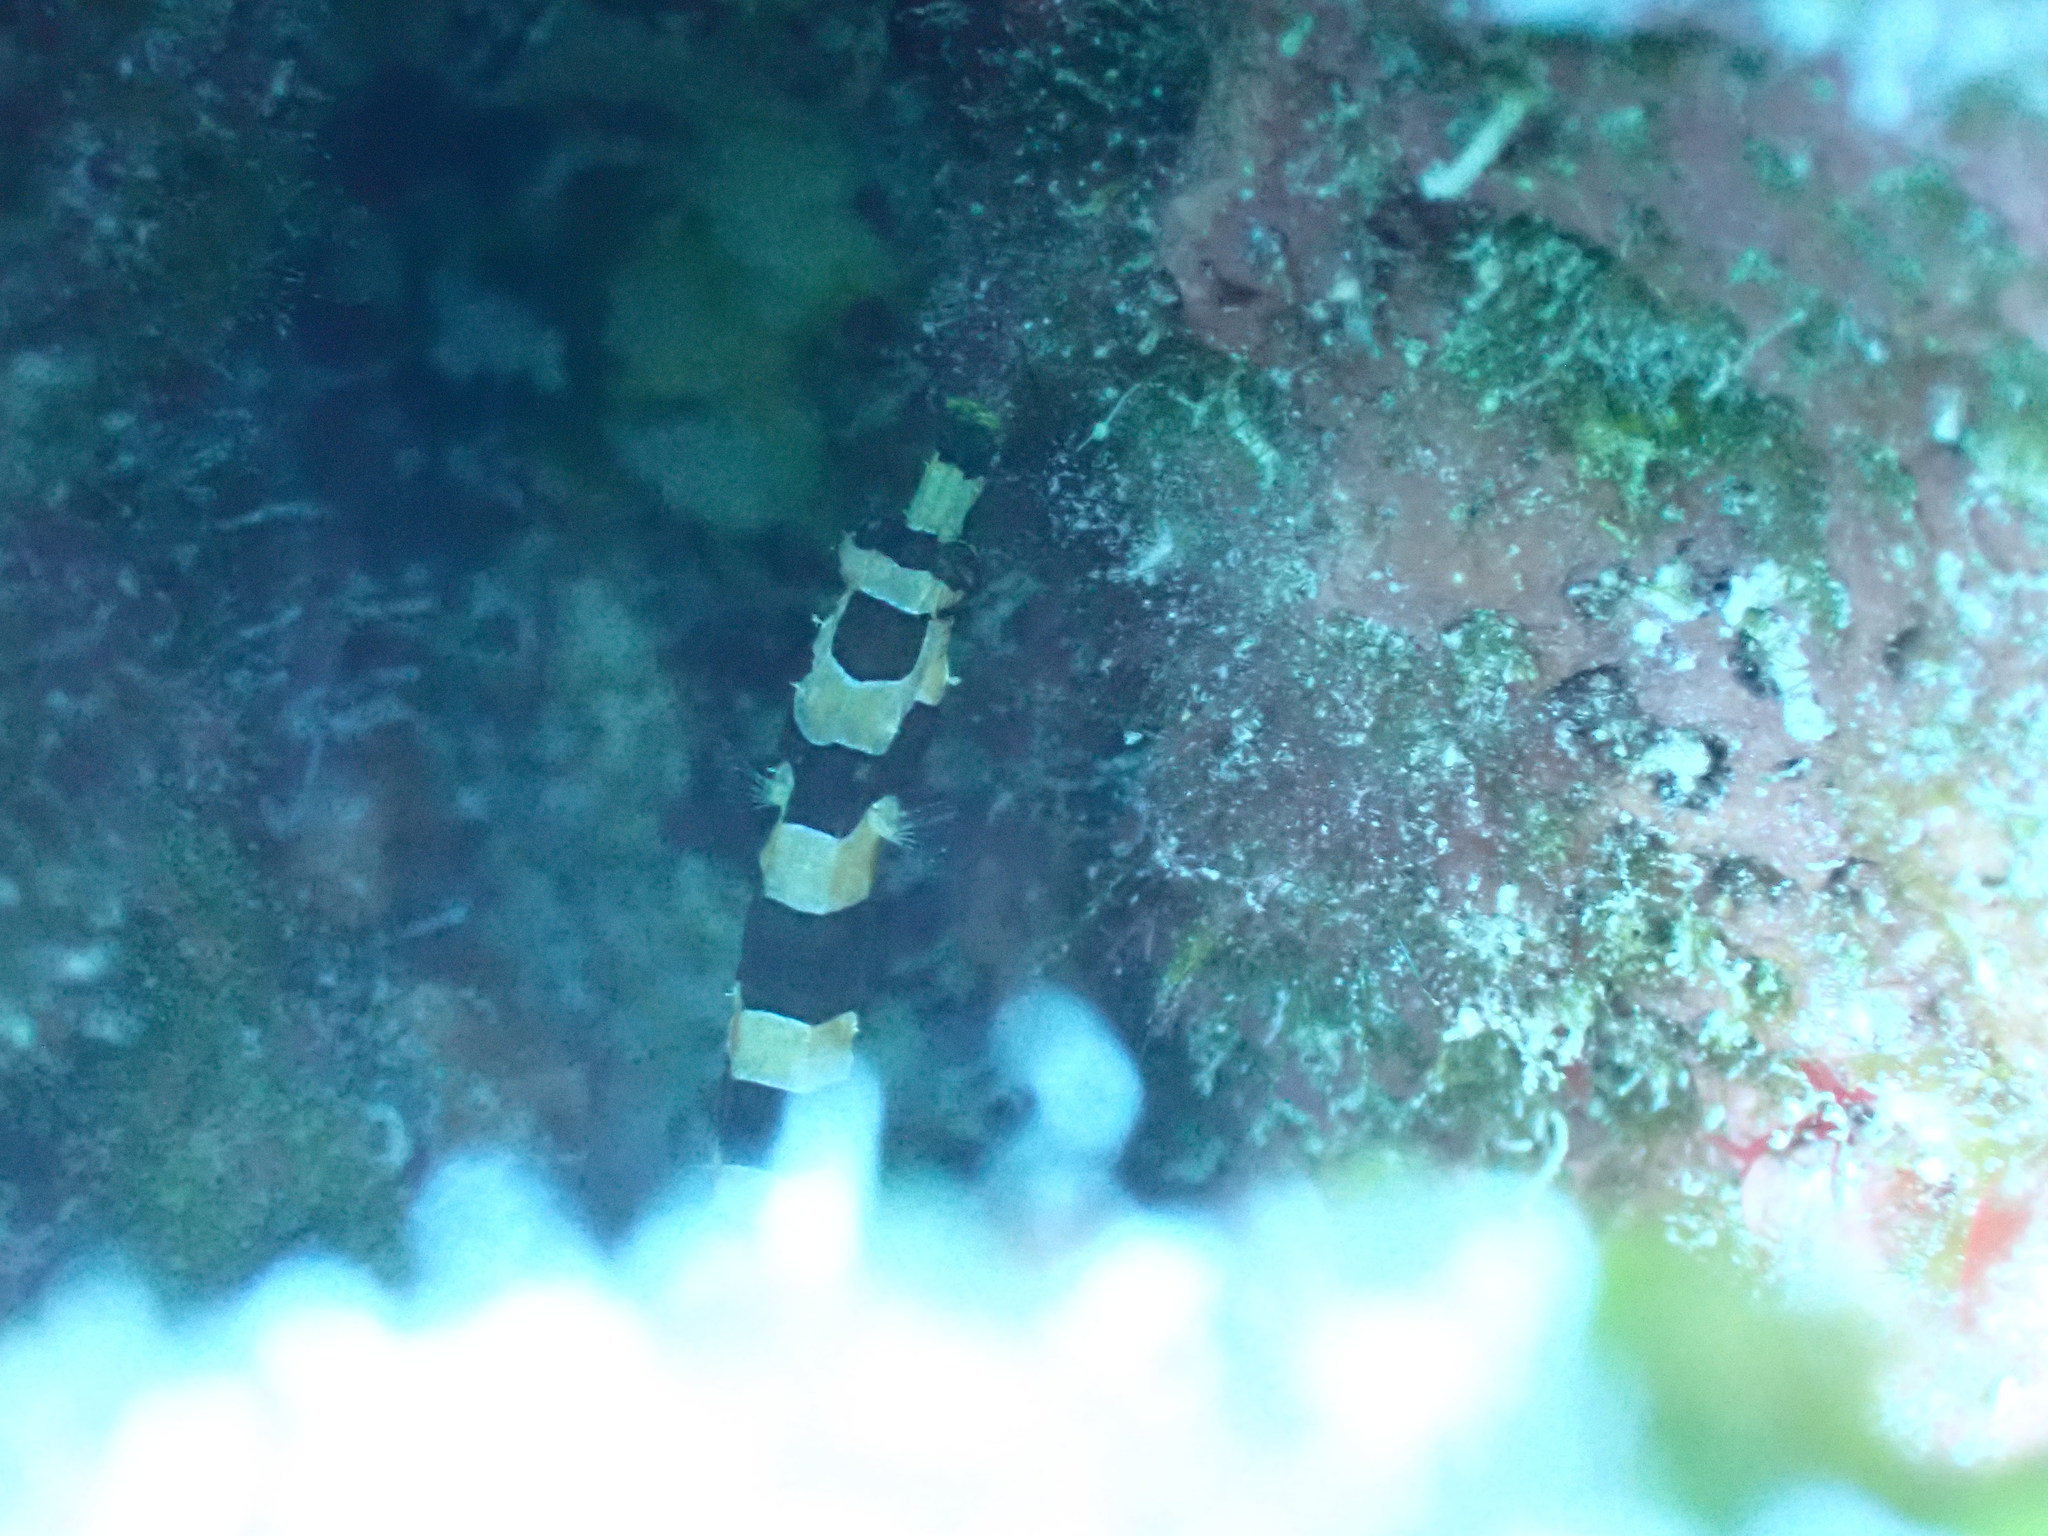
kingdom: Animalia
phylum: Chordata
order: Syngnathiformes
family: Syngnathidae
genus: Micrognathus
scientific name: Micrognathus crinitus
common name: Banded pipefish
